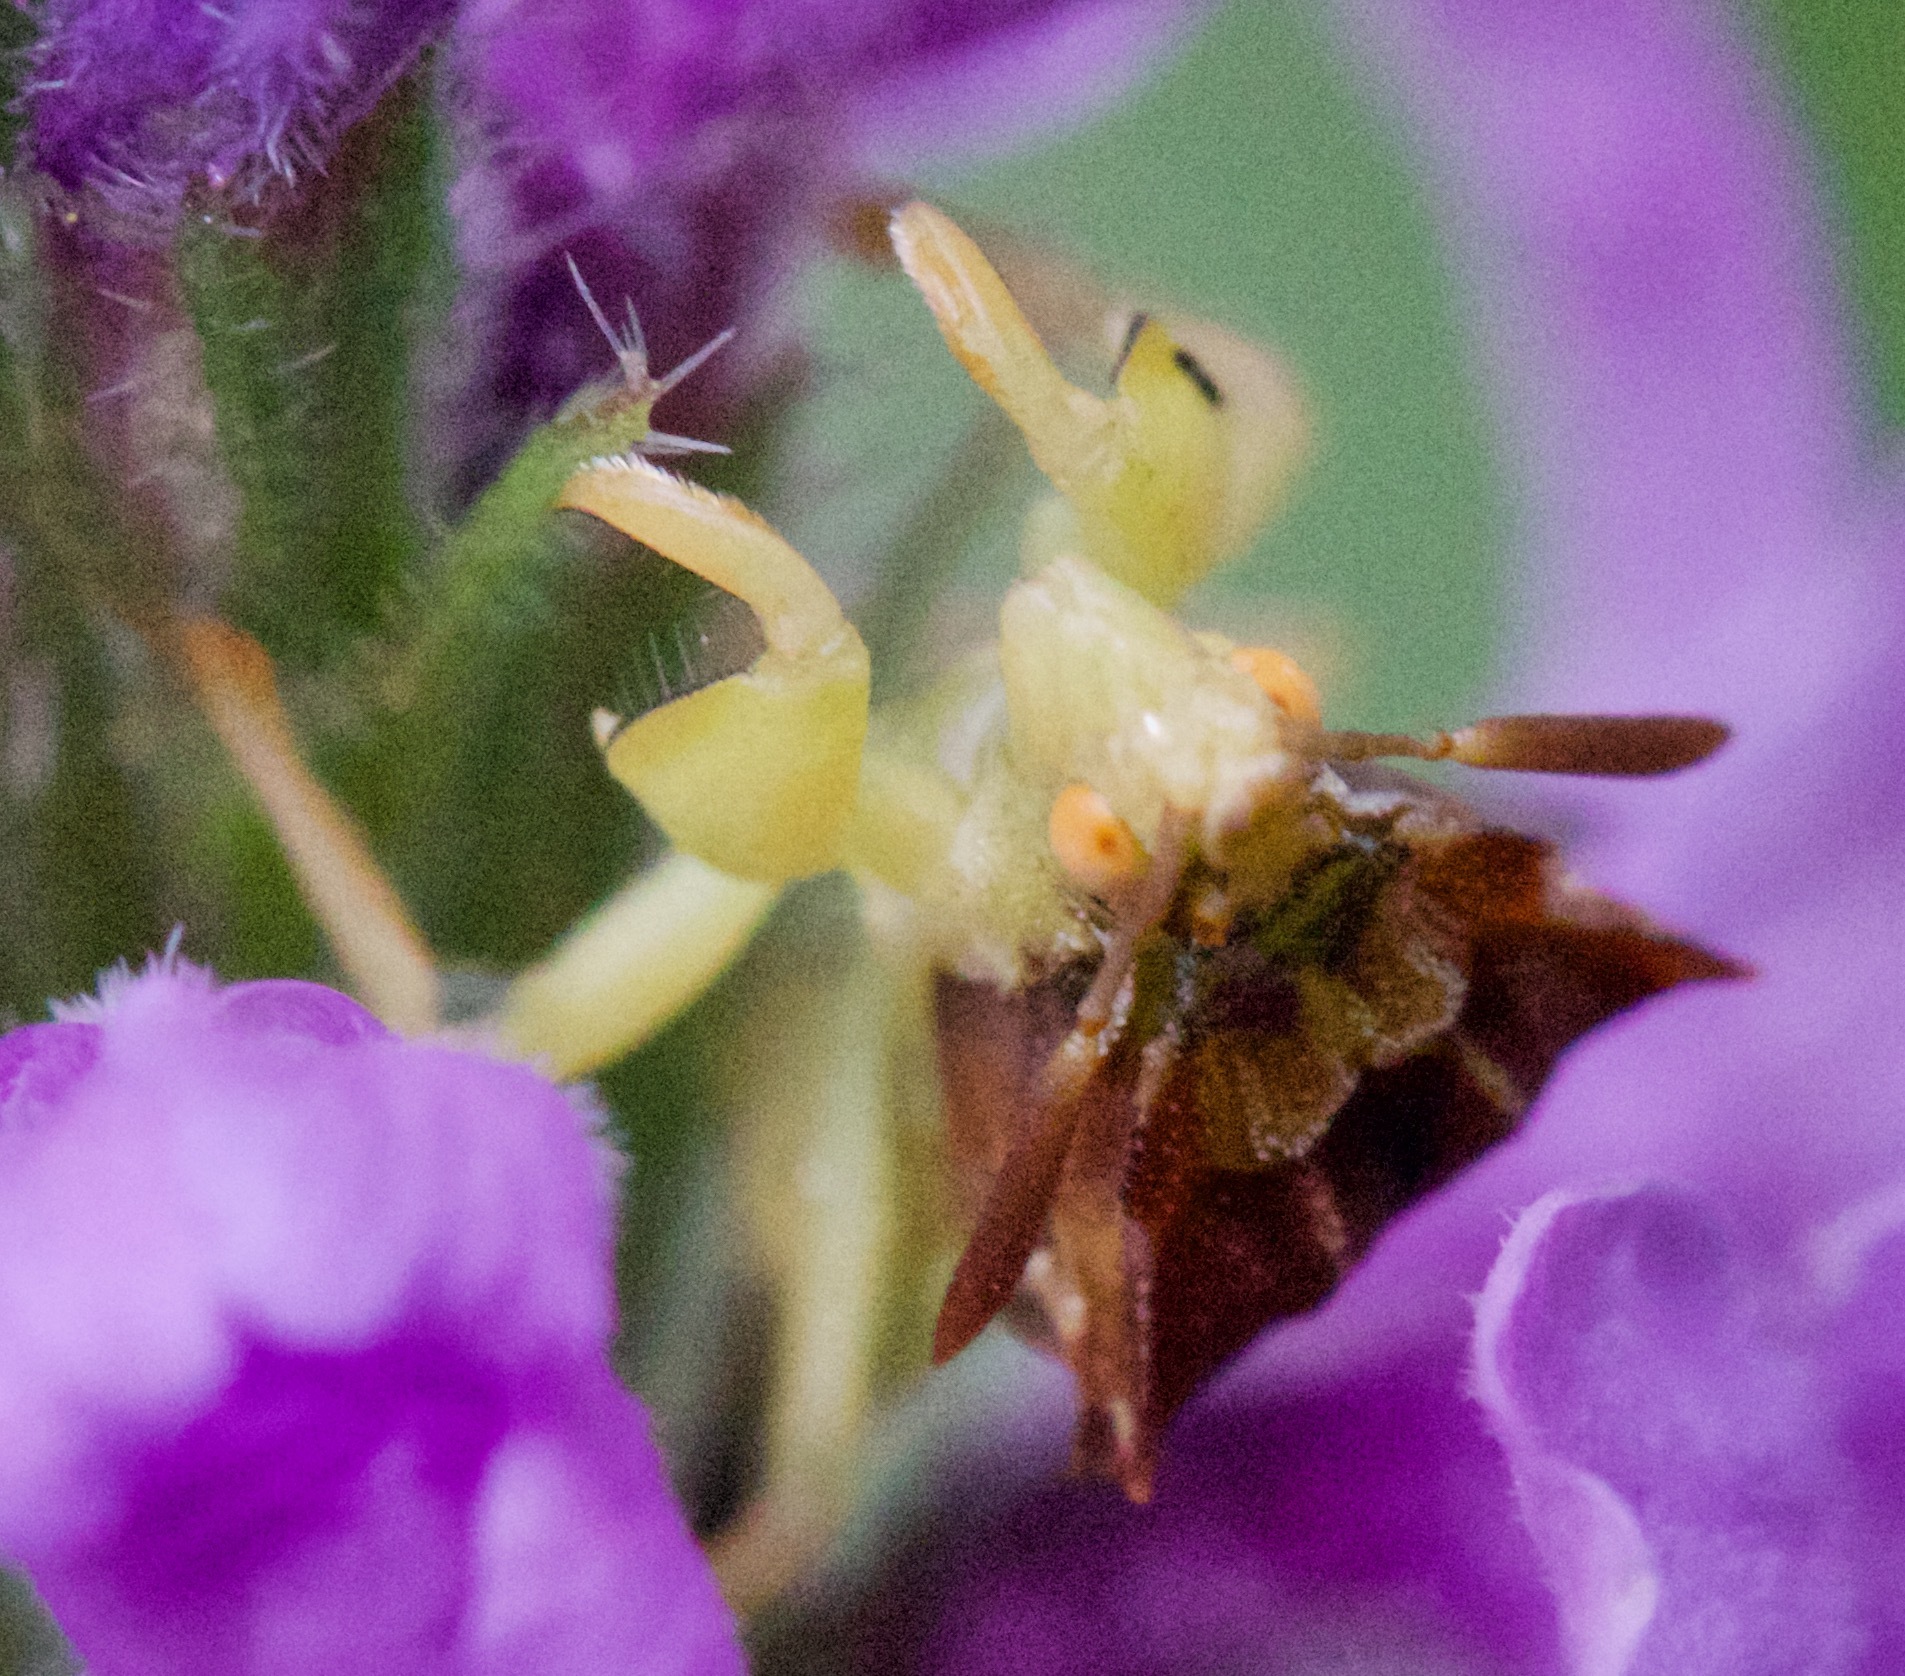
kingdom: Animalia
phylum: Arthropoda
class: Insecta
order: Hemiptera
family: Reduviidae
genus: Phymata
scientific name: Phymata pennsylvanica
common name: Pennsylvania ambush bug
